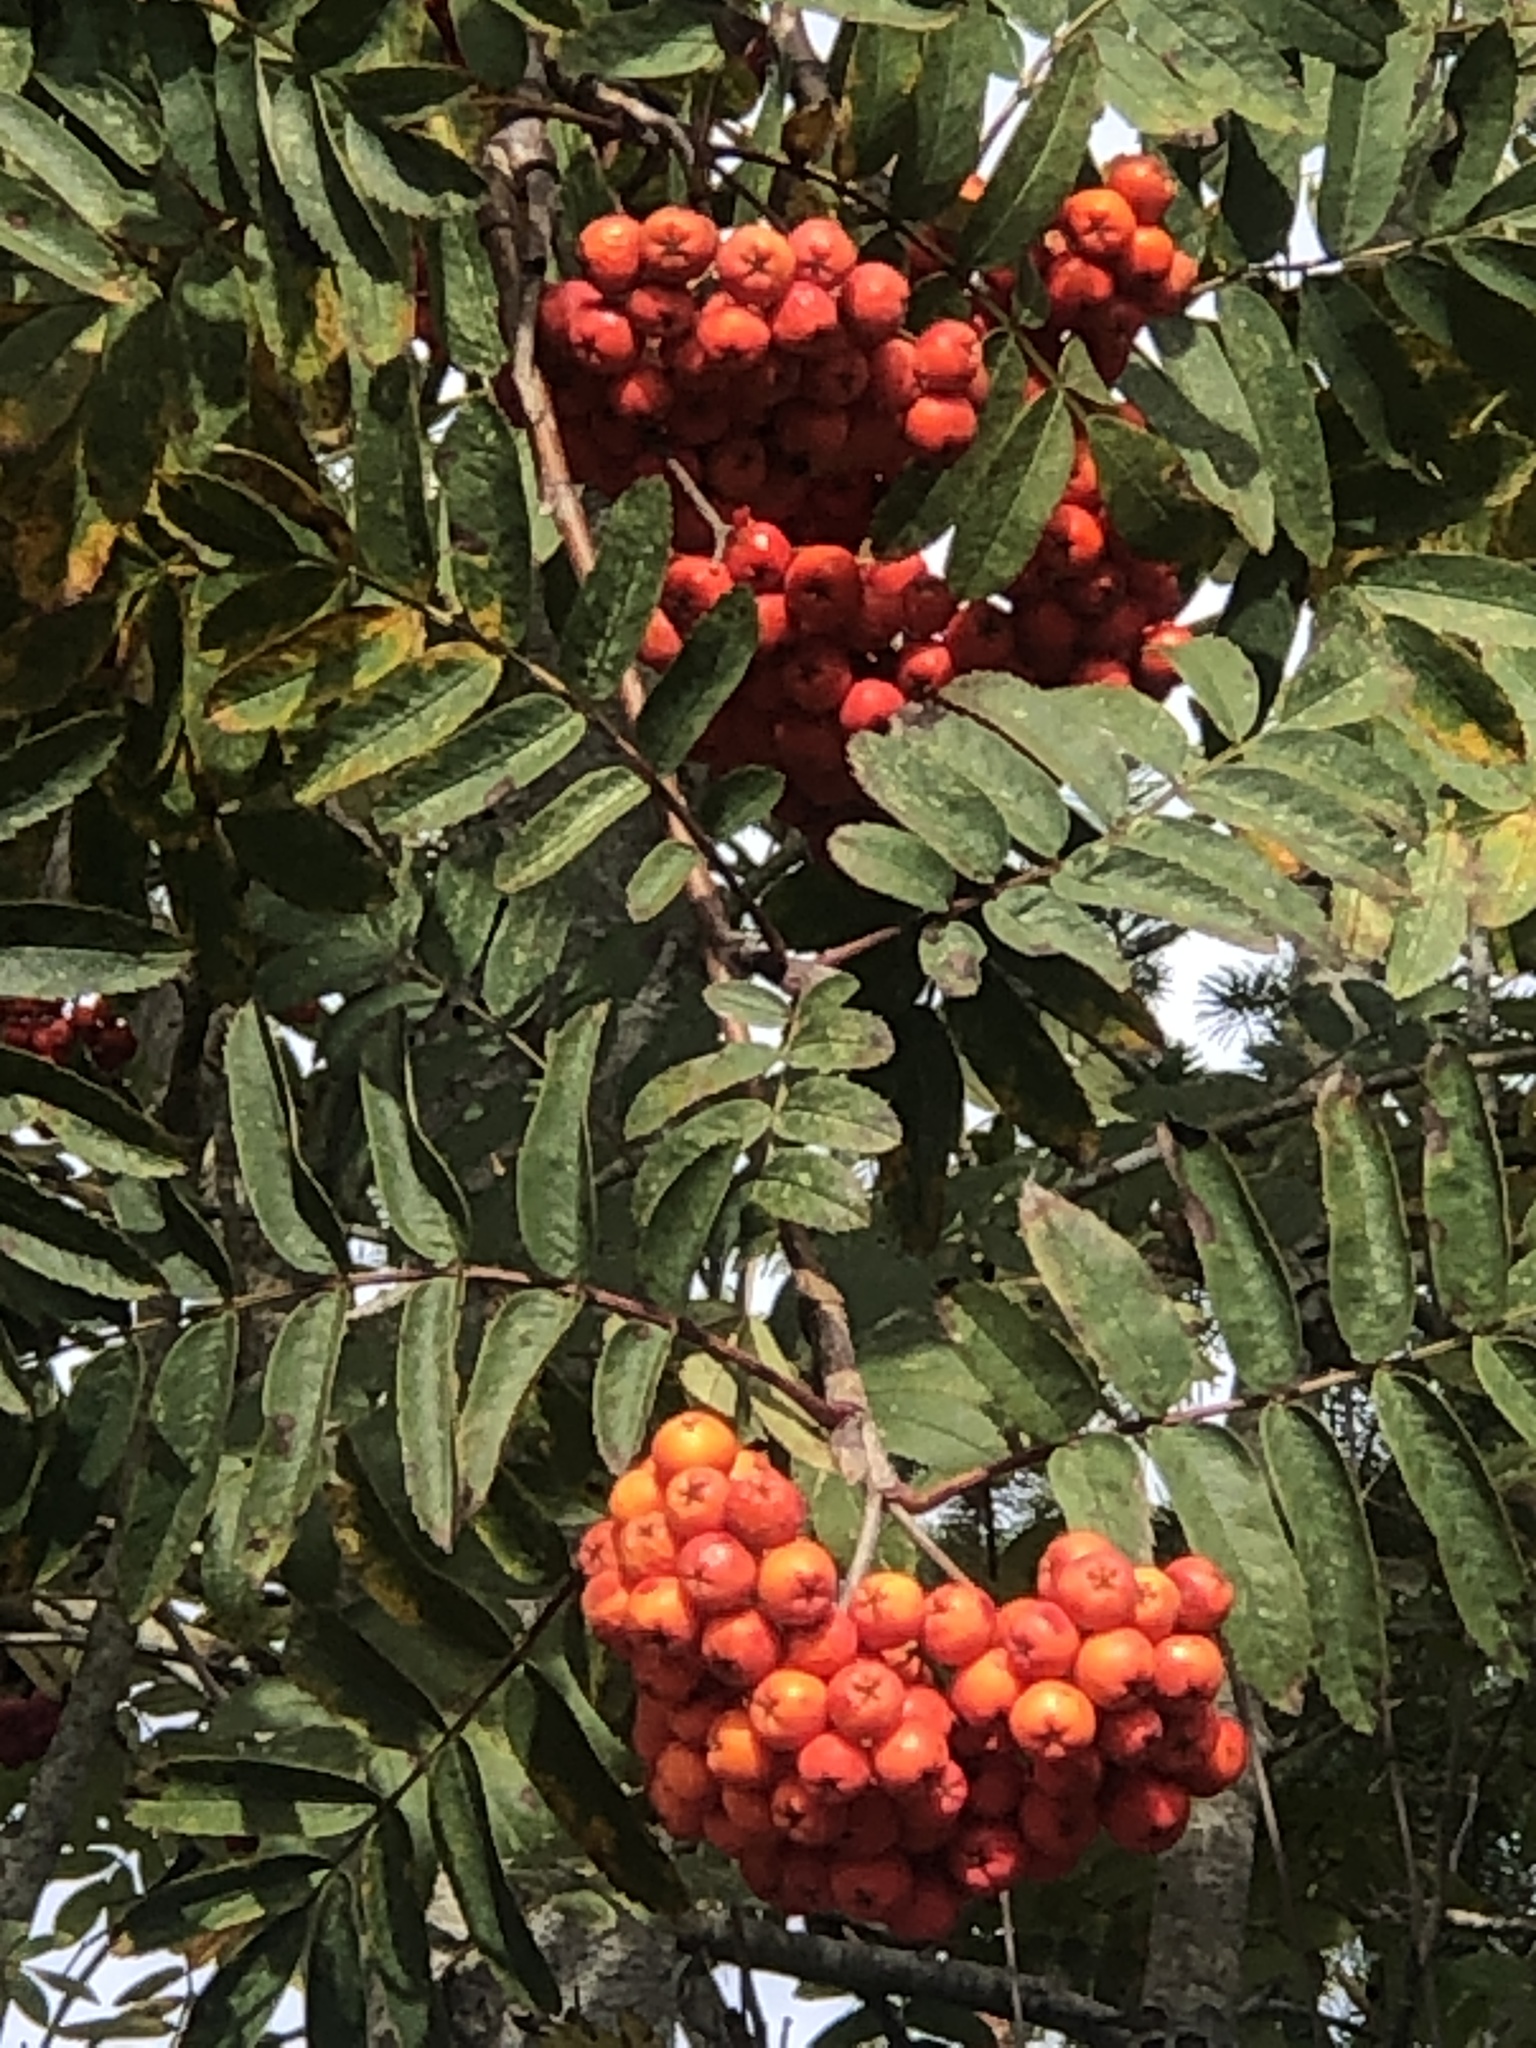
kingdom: Plantae
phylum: Tracheophyta
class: Magnoliopsida
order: Rosales
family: Rosaceae
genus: Sorbus
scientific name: Sorbus aucuparia
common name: Rowan
